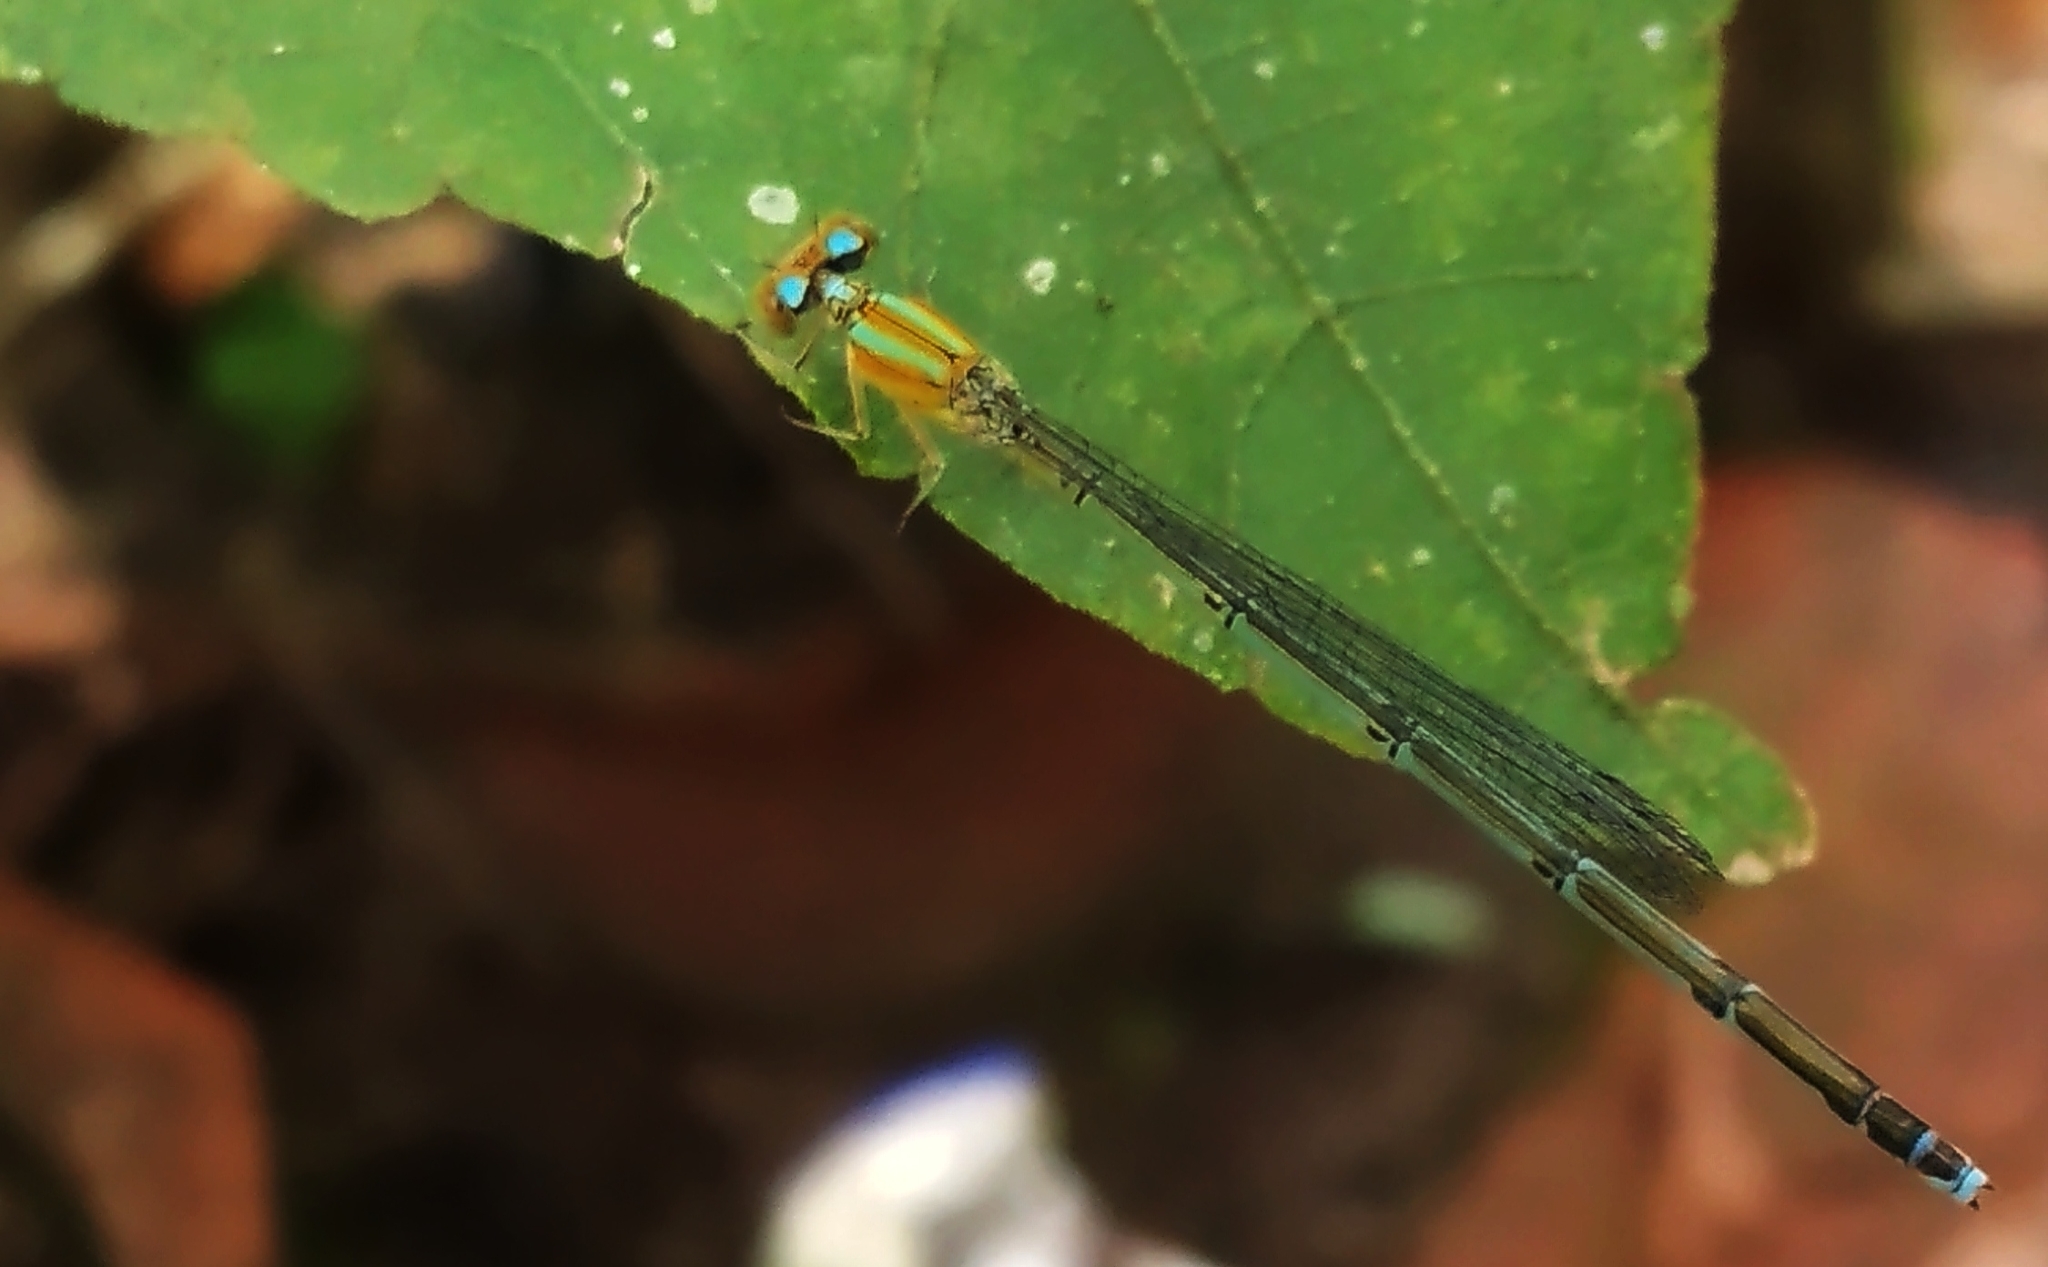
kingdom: Animalia
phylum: Arthropoda
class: Insecta
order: Odonata
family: Coenagrionidae
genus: Pseudagrion
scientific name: Pseudagrion microcephalum
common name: Blue riverdamsel
